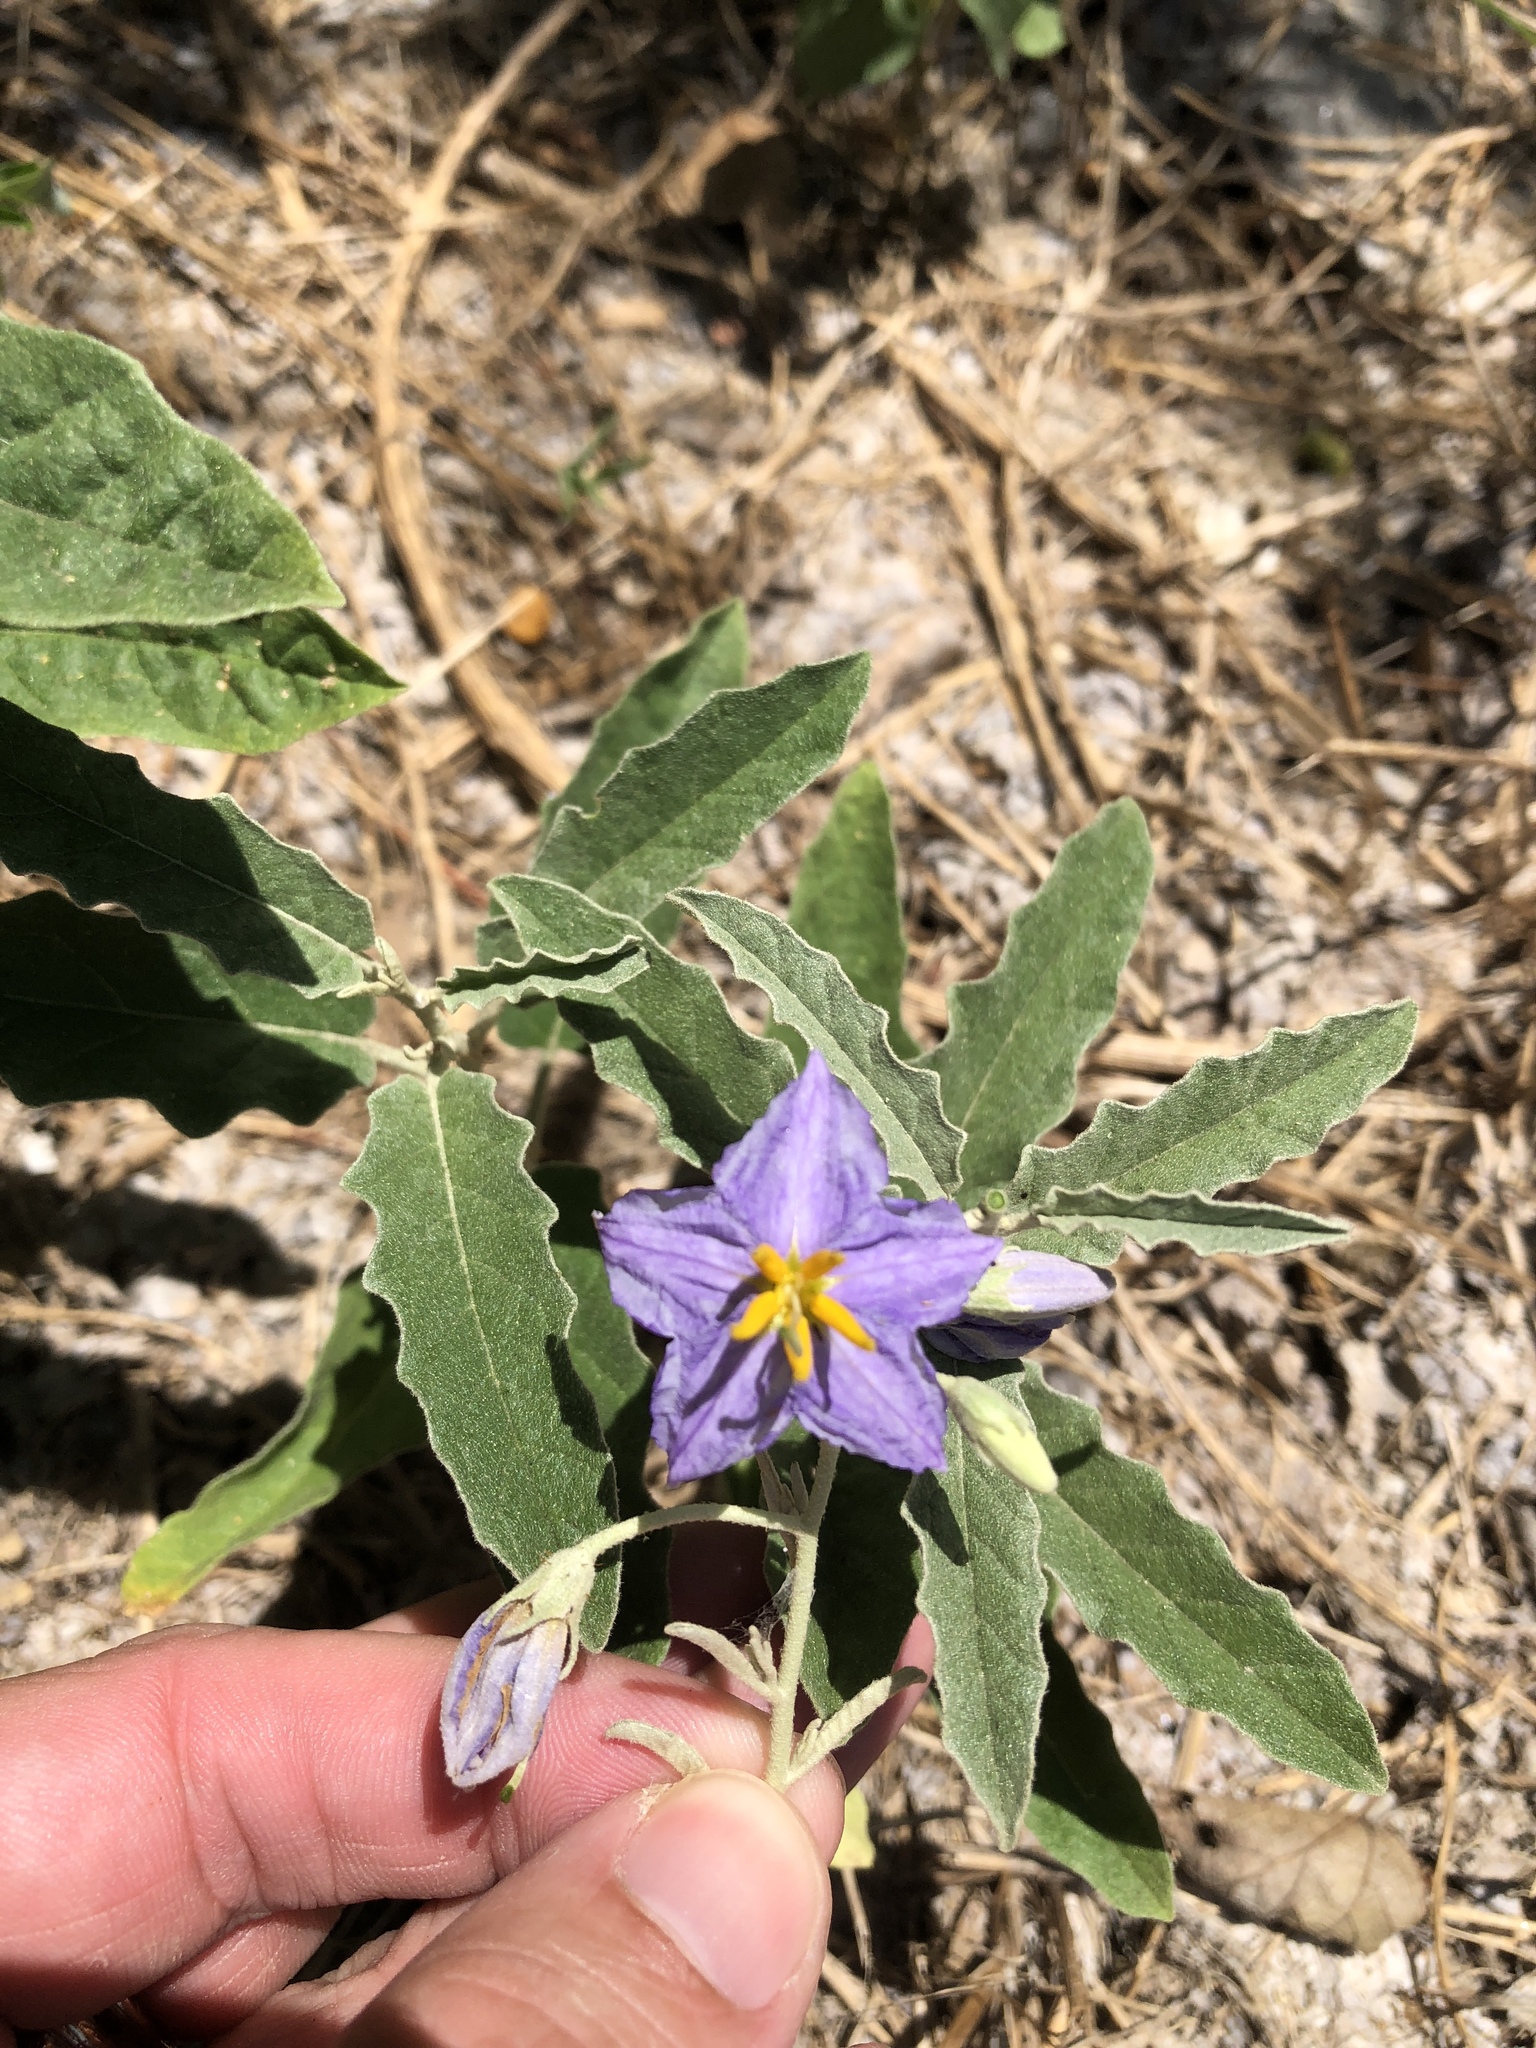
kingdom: Plantae
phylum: Tracheophyta
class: Magnoliopsida
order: Solanales
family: Solanaceae
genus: Solanum
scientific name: Solanum elaeagnifolium
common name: Silverleaf nightshade
